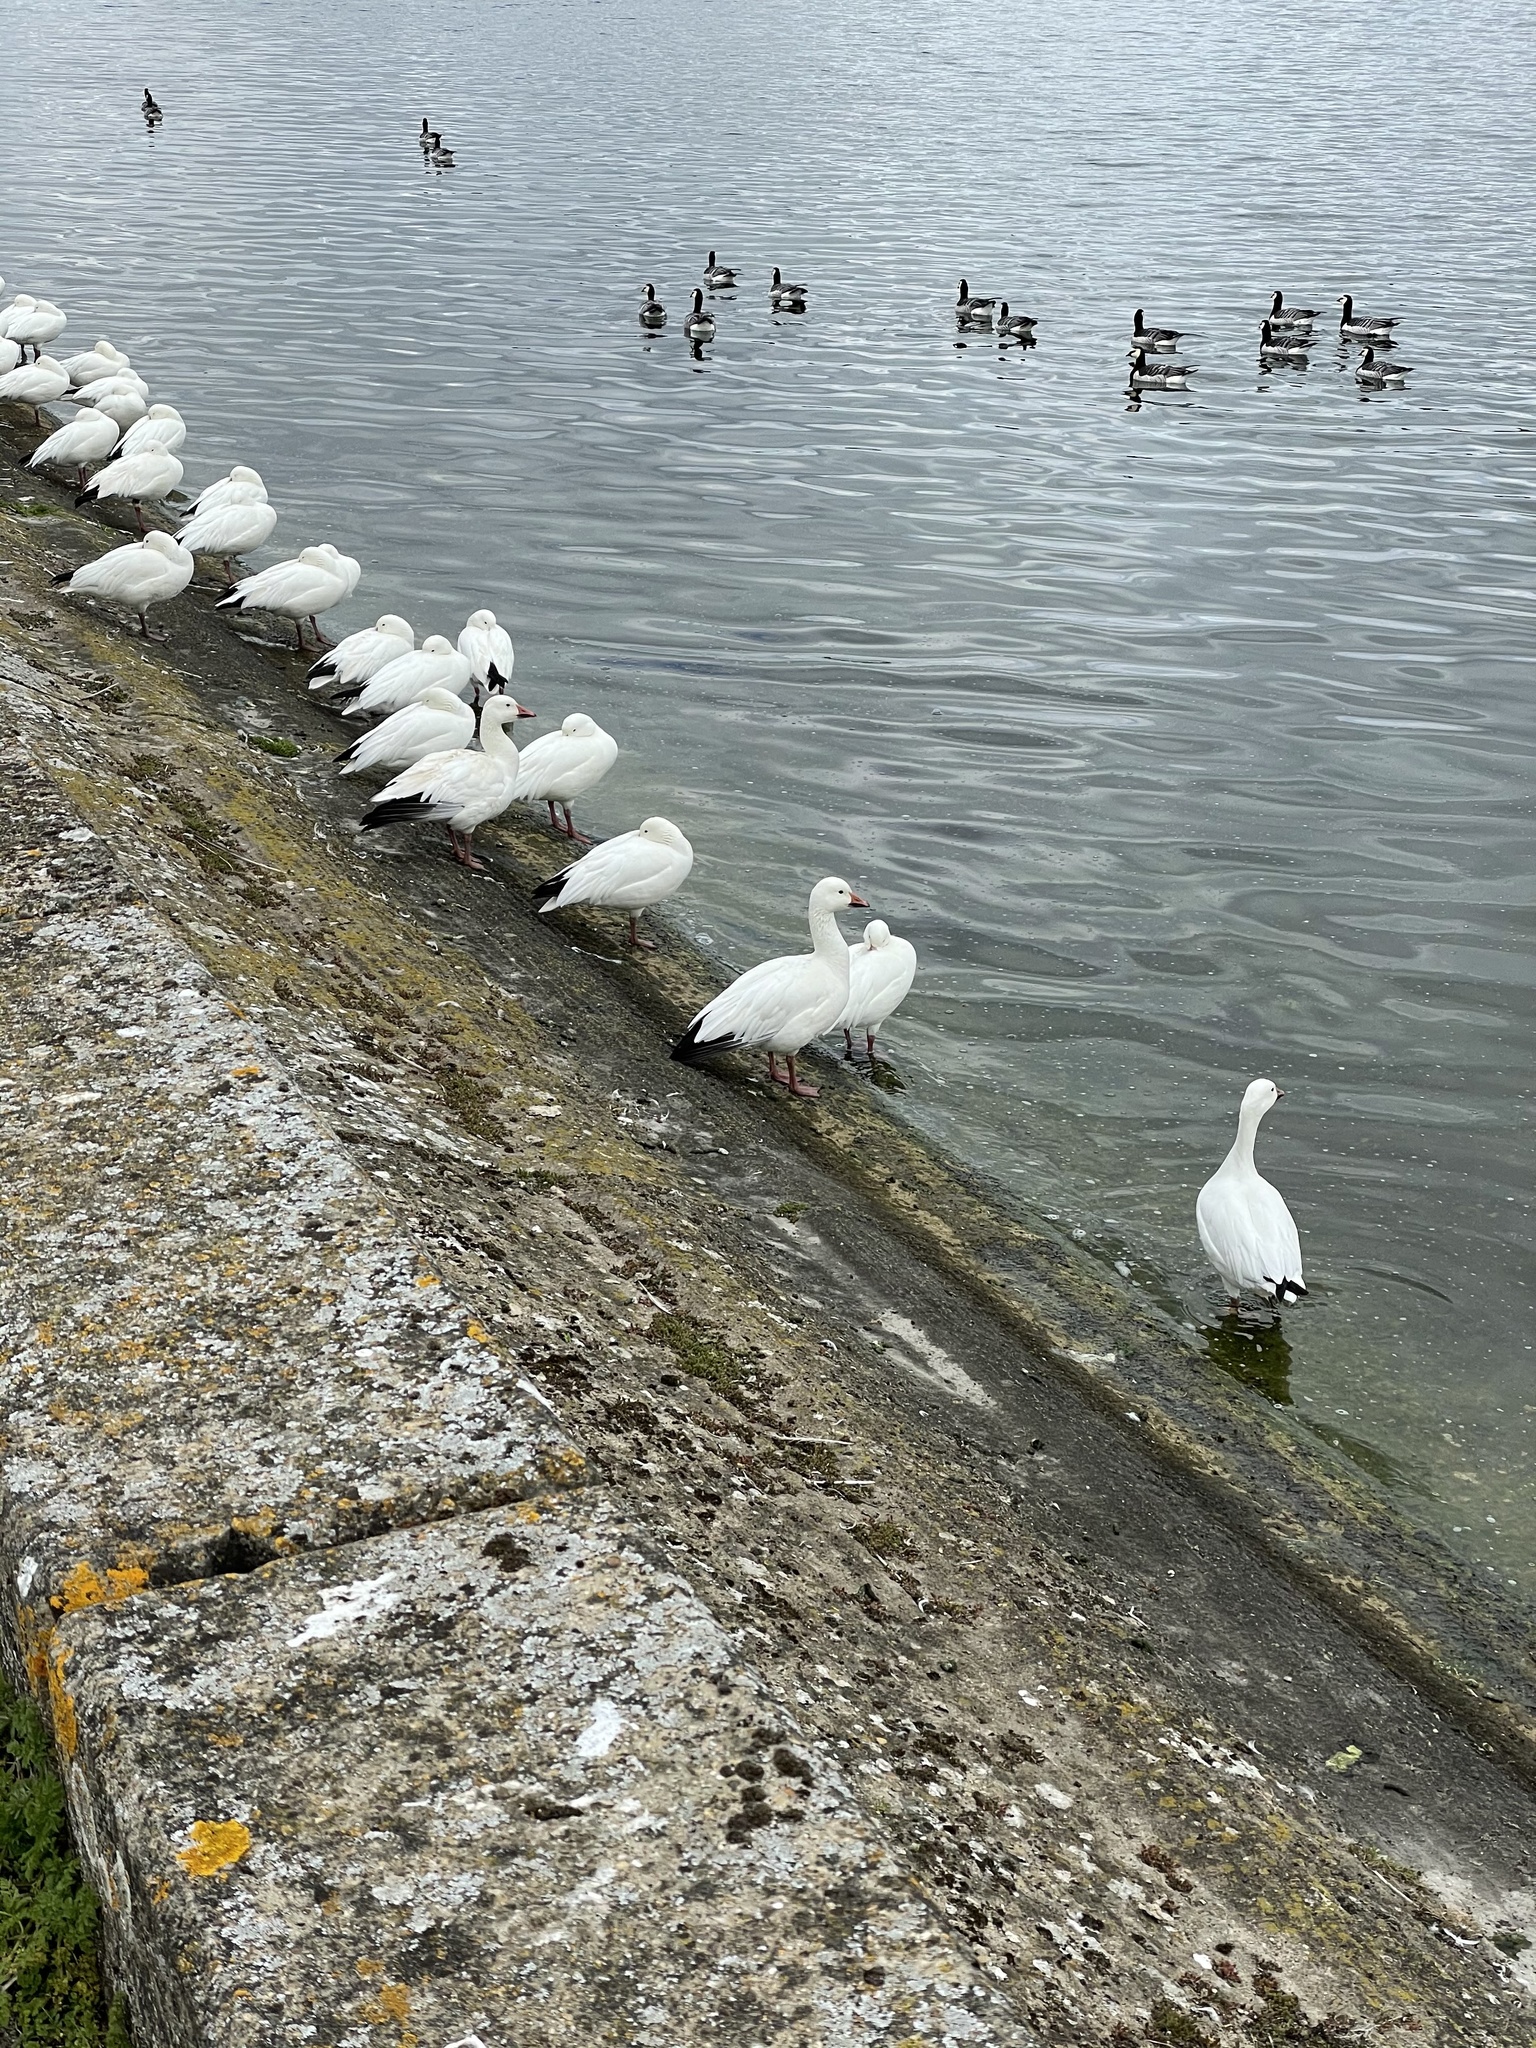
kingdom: Animalia
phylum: Chordata
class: Aves
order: Anseriformes
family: Anatidae
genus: Anser
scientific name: Anser caerulescens
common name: Snow goose
